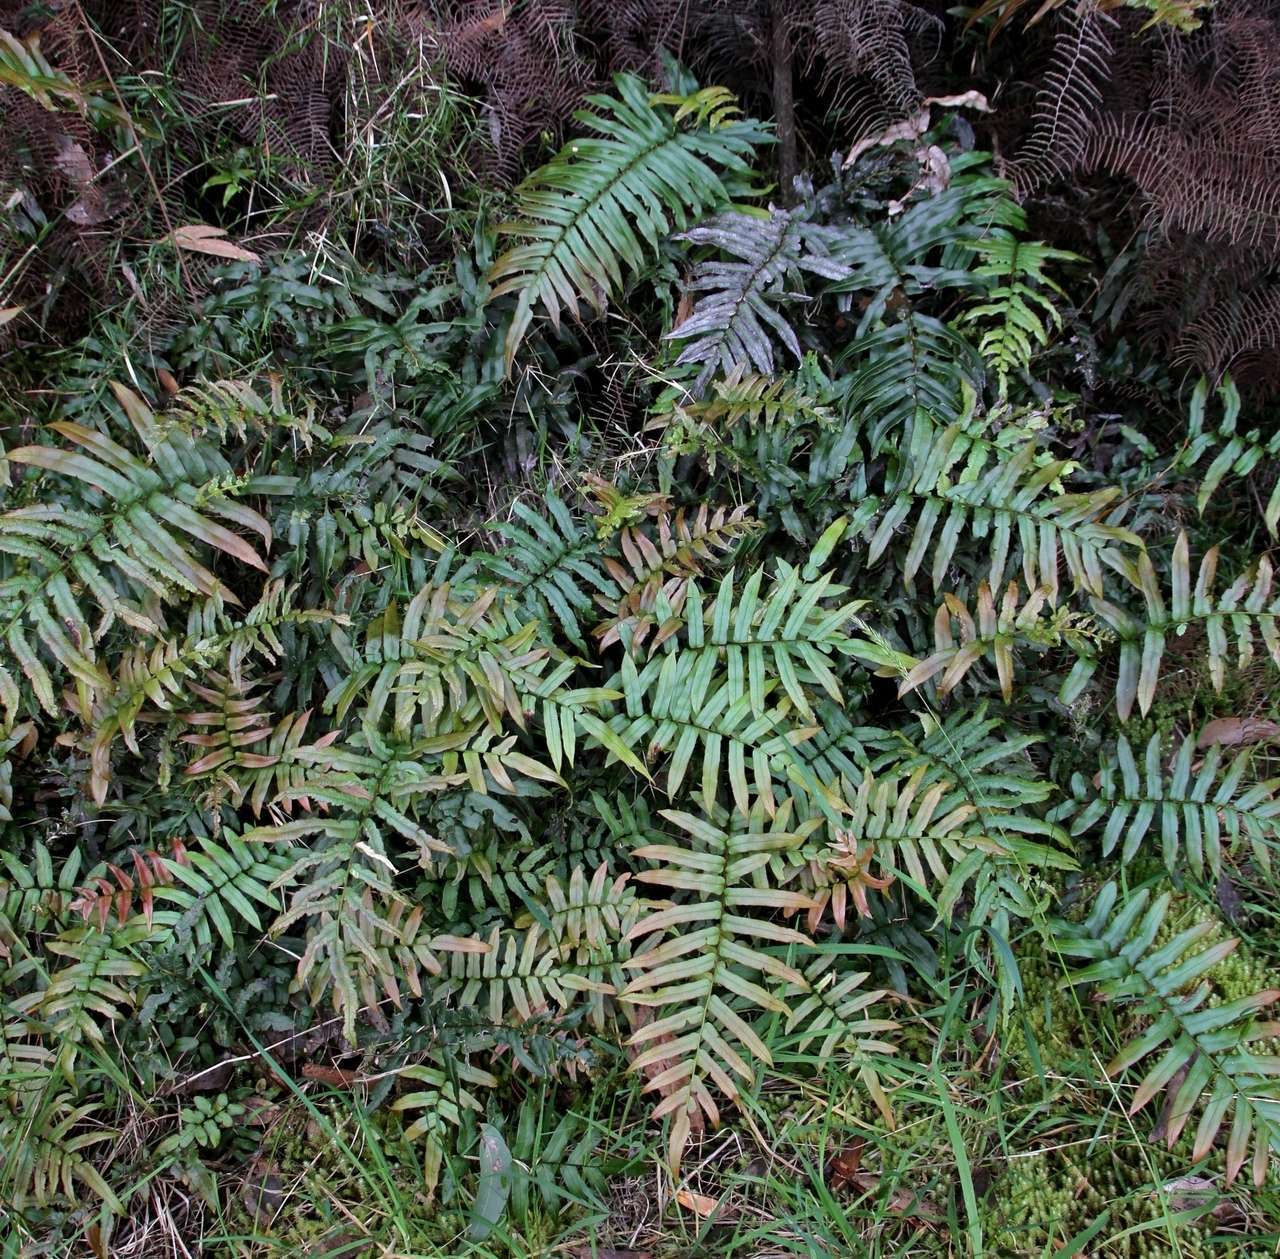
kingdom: Plantae
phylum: Tracheophyta
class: Polypodiopsida
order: Polypodiales
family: Blechnaceae
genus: Parablechnum
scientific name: Parablechnum wattsii
